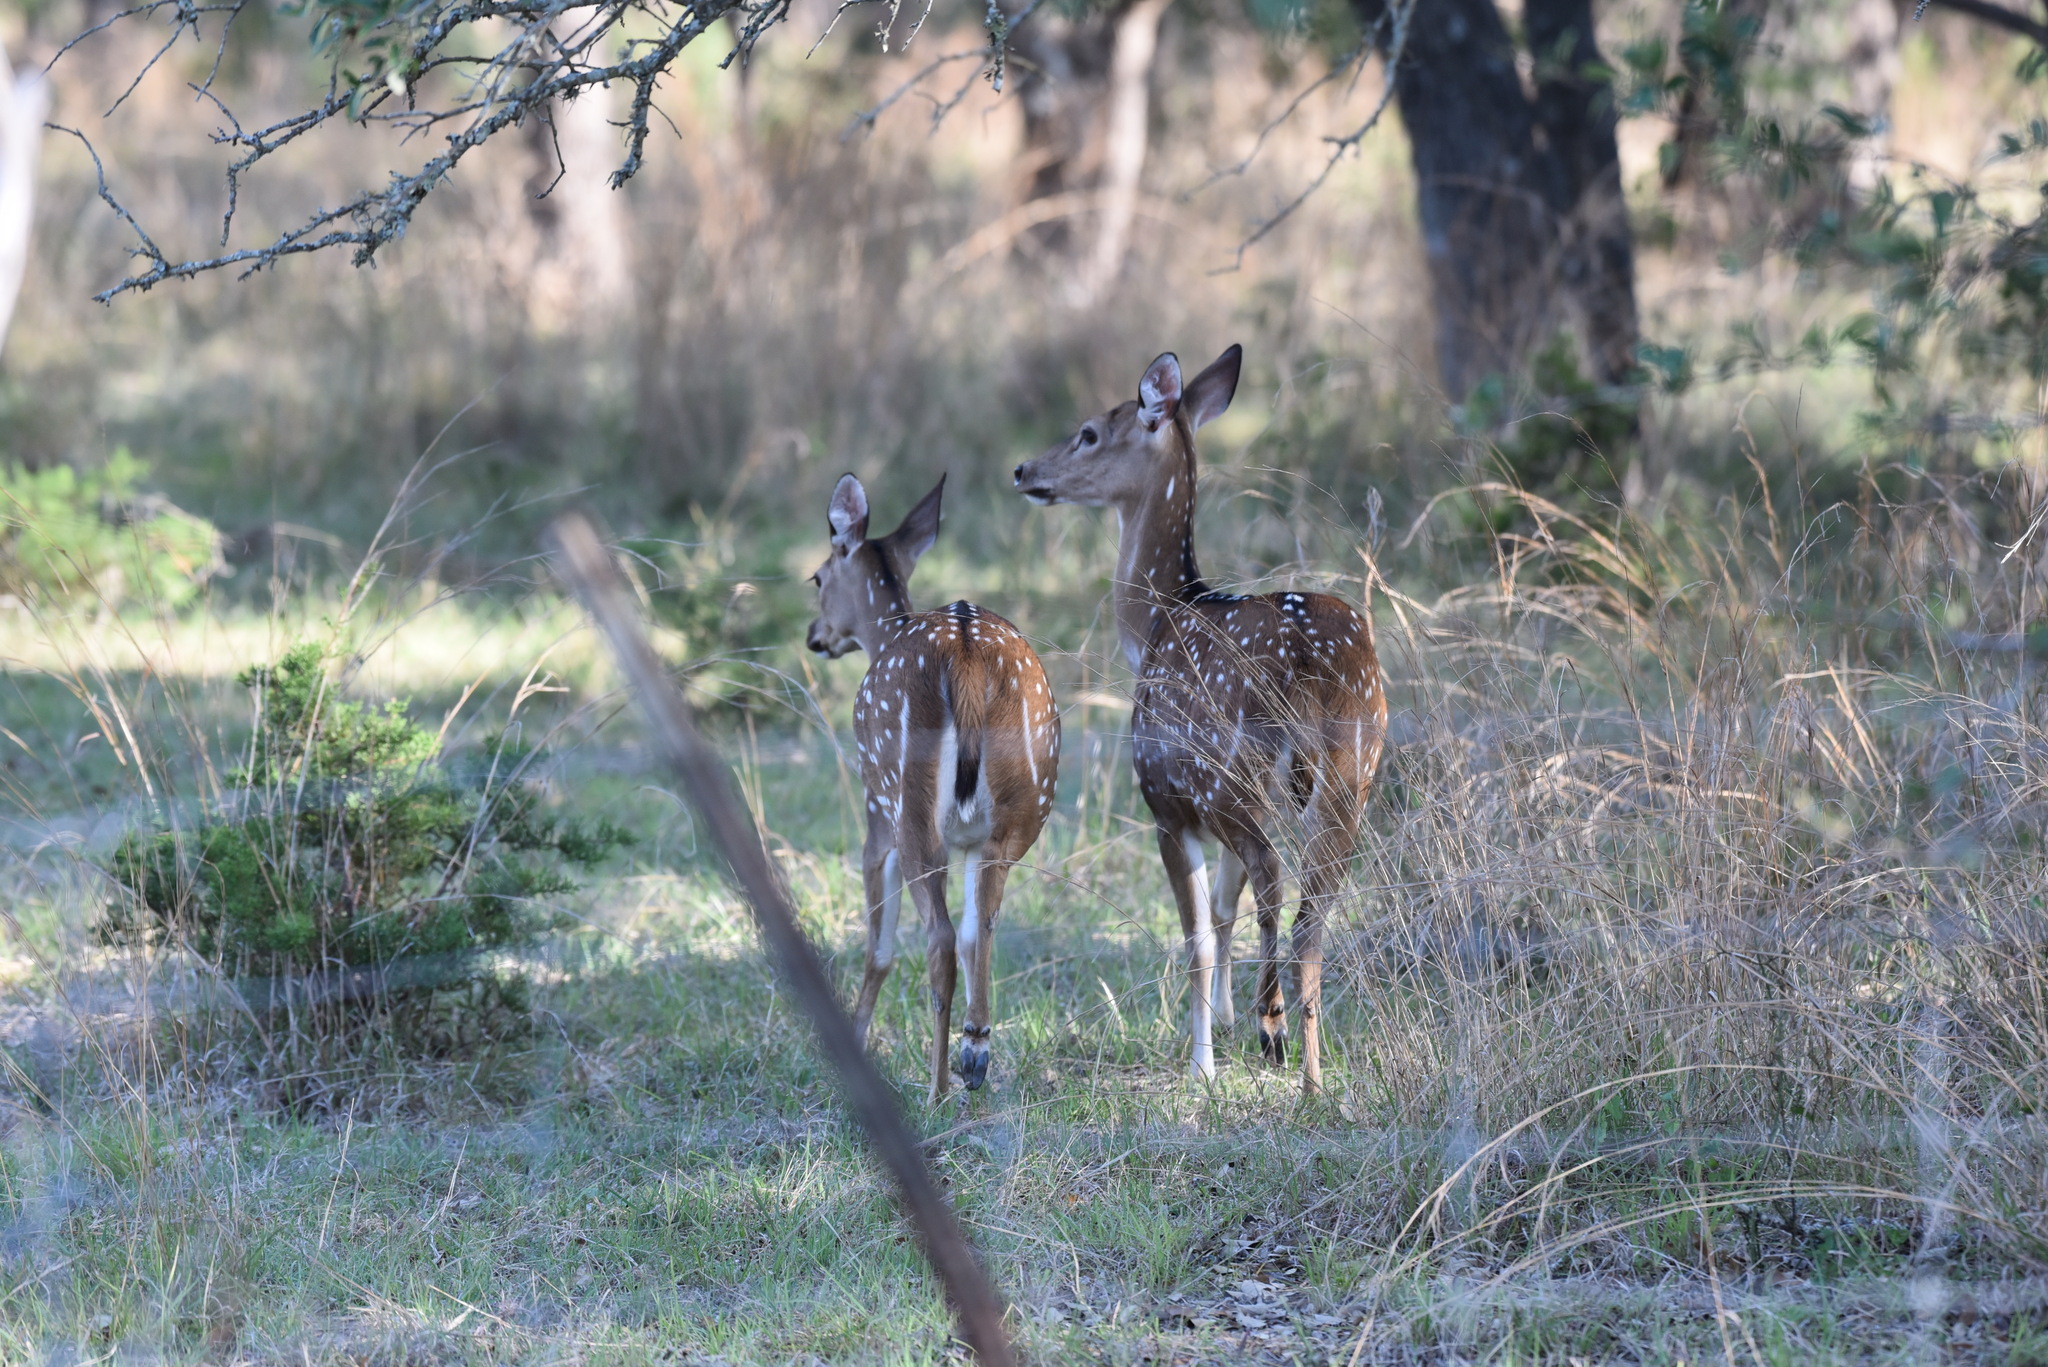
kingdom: Animalia
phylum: Chordata
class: Mammalia
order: Artiodactyla
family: Cervidae
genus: Axis
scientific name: Axis axis
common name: Chital
